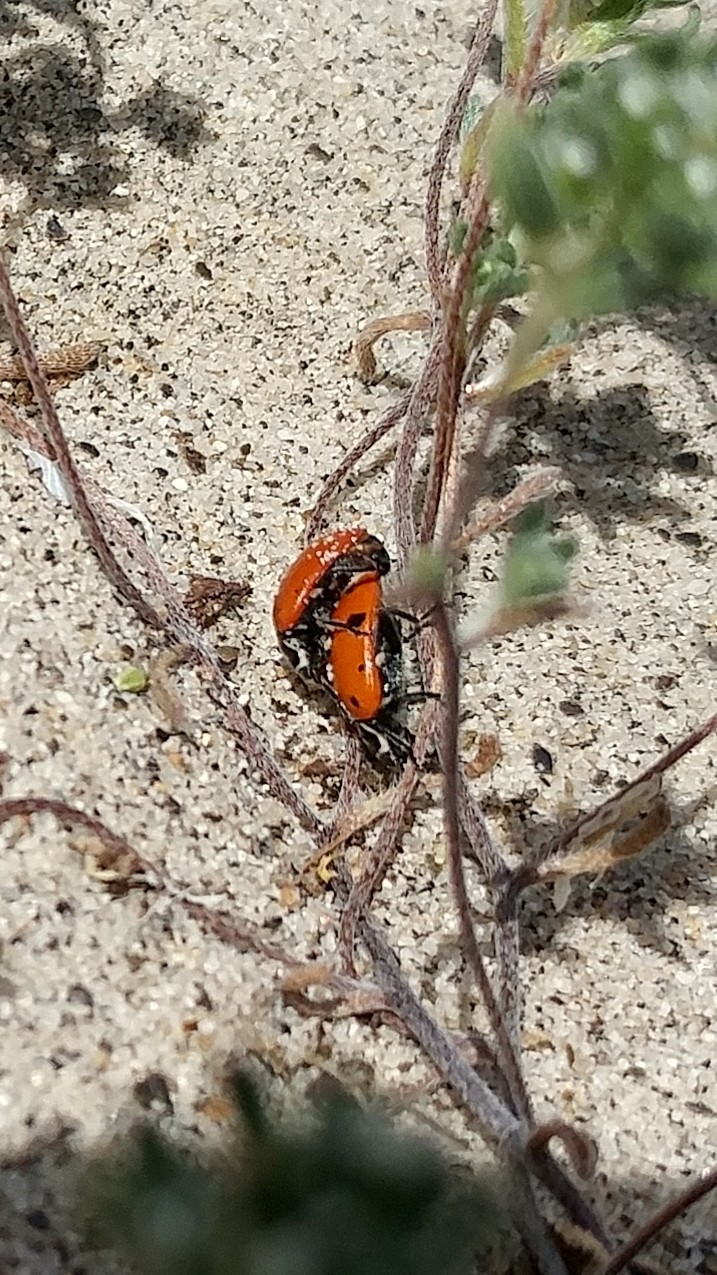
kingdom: Animalia
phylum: Arthropoda
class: Insecta
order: Coleoptera
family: Coccinellidae
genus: Hippodamia
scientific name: Hippodamia convergens
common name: Convergent lady beetle
